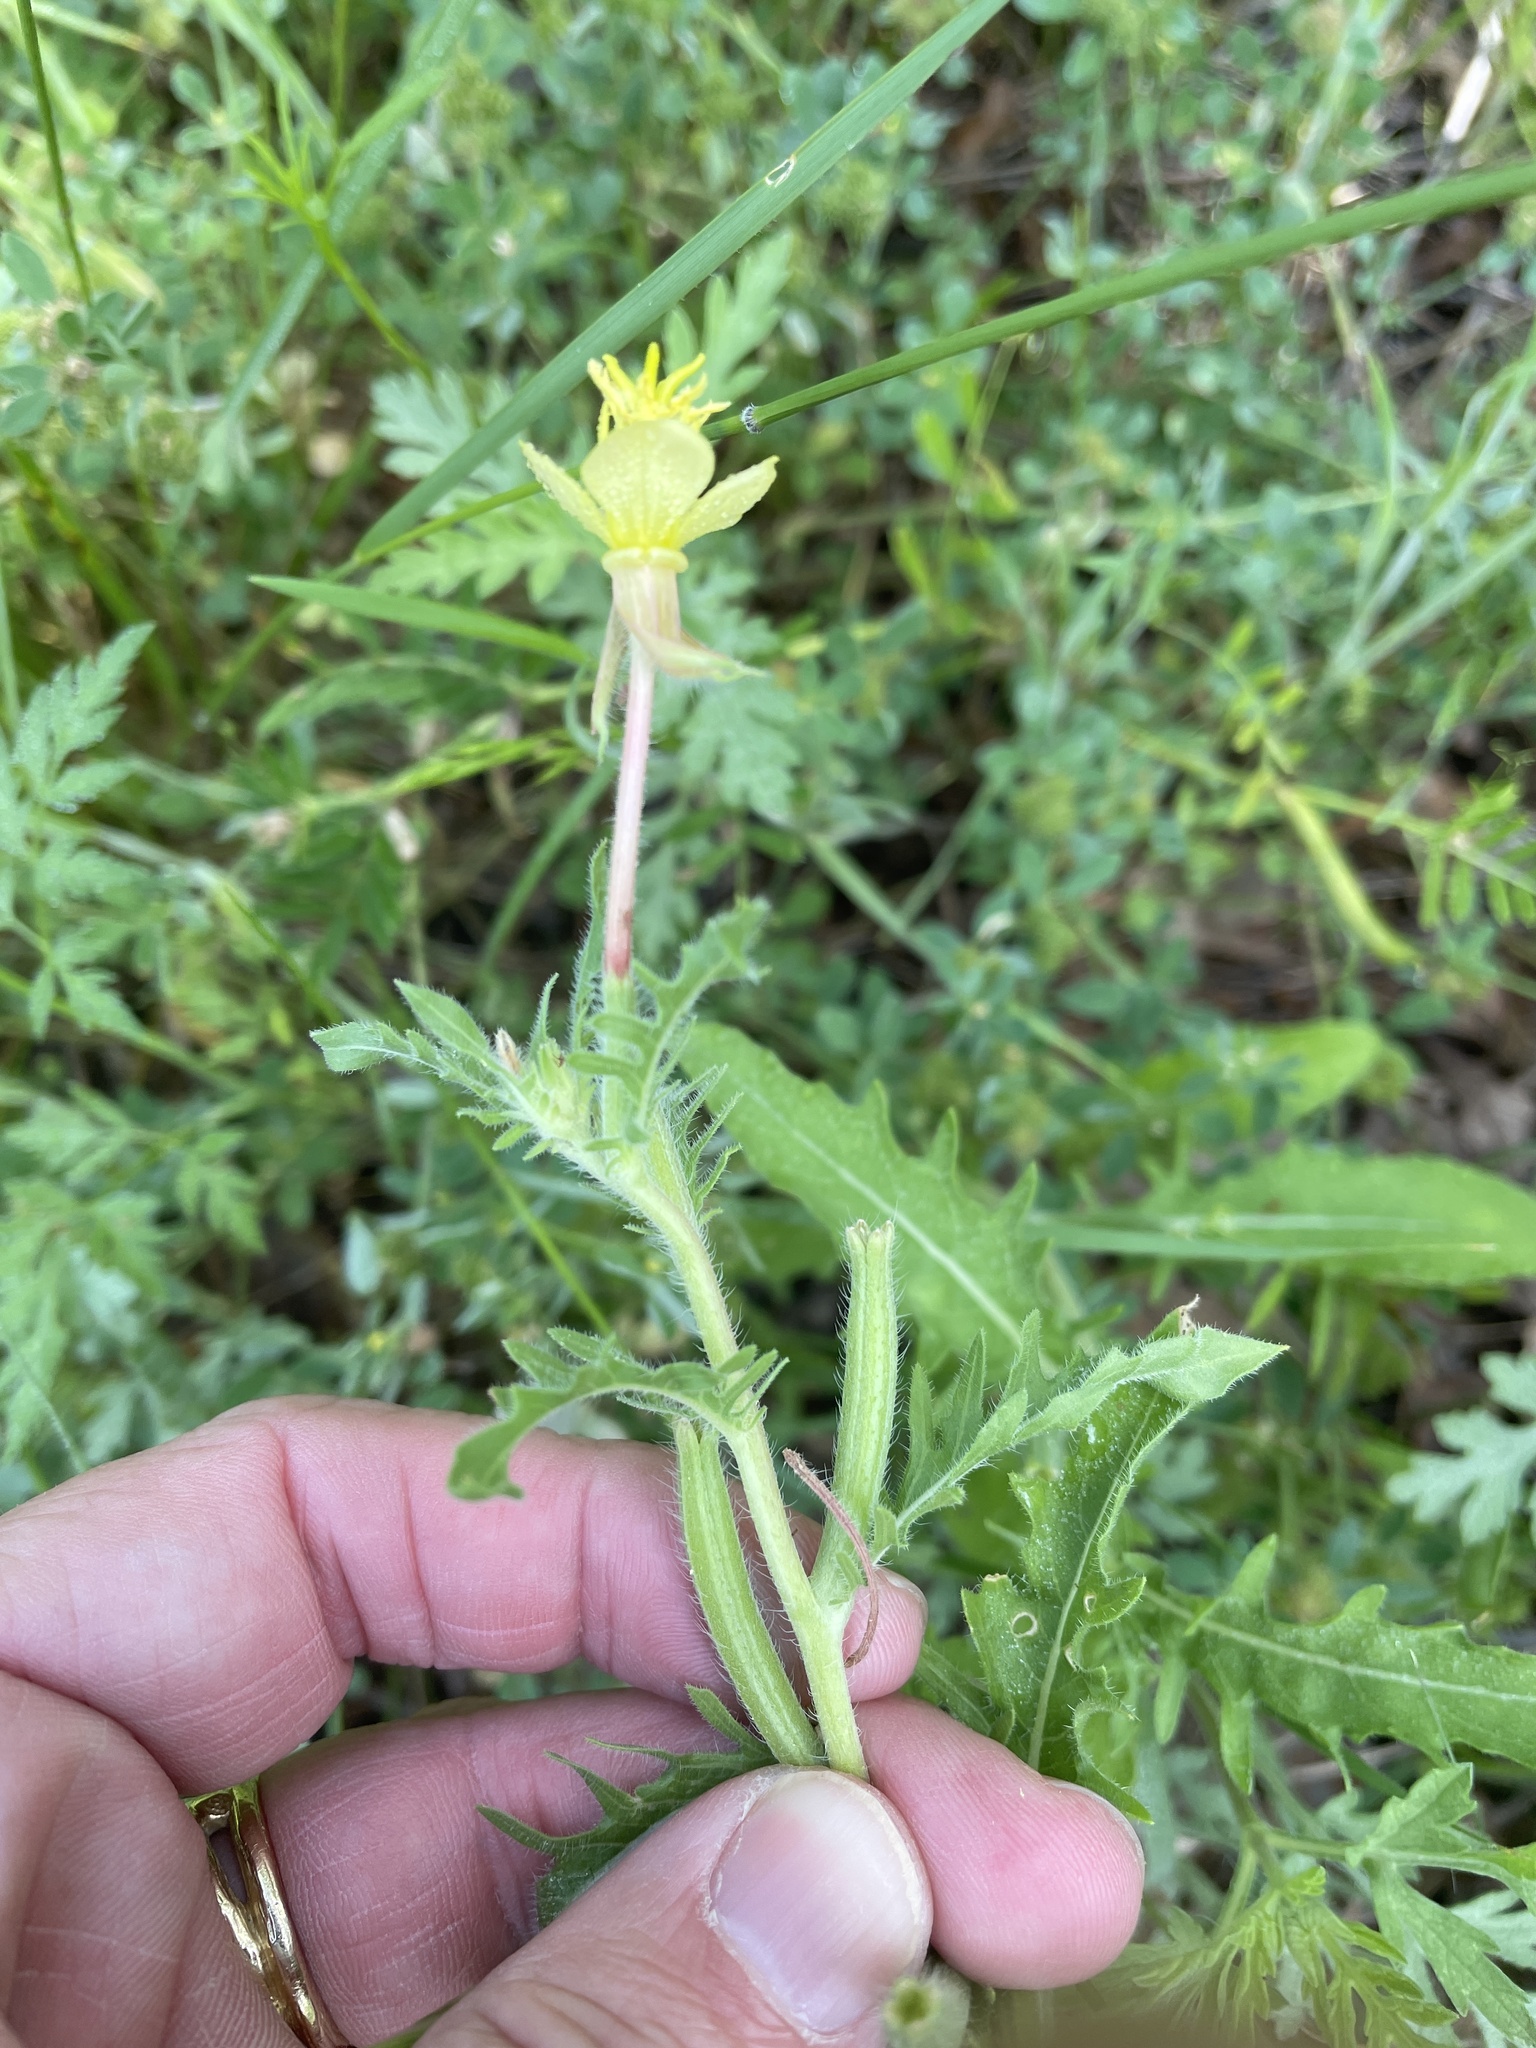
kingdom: Plantae
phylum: Tracheophyta
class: Magnoliopsida
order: Myrtales
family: Onagraceae
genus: Oenothera
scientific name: Oenothera laciniata
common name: Cut-leaved evening-primrose
